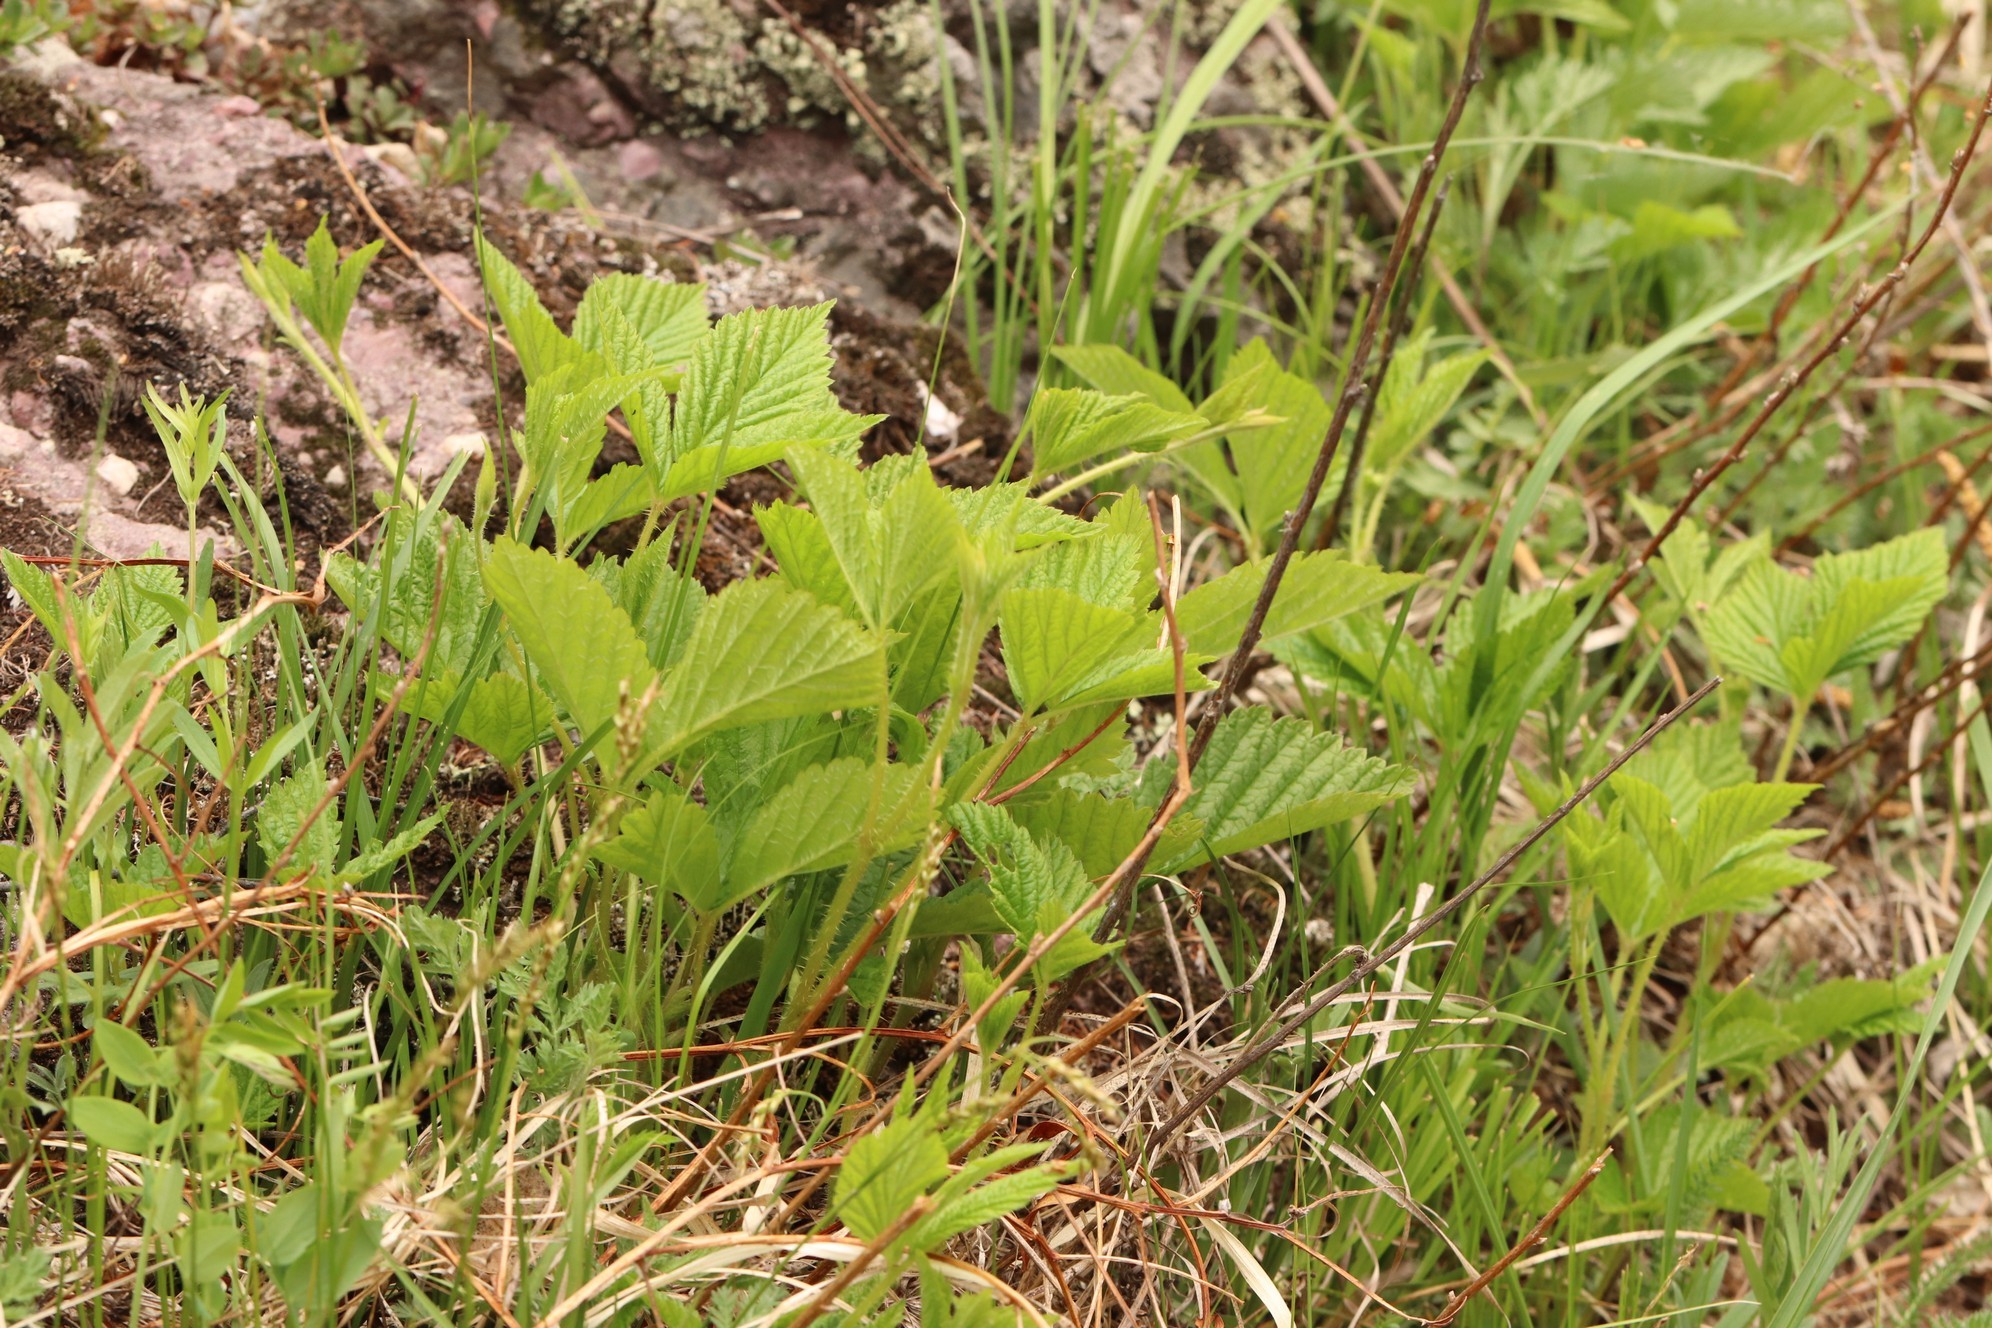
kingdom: Plantae
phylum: Tracheophyta
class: Magnoliopsida
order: Rosales
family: Rosaceae
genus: Rubus
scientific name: Rubus saxatilis
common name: Stone bramble
